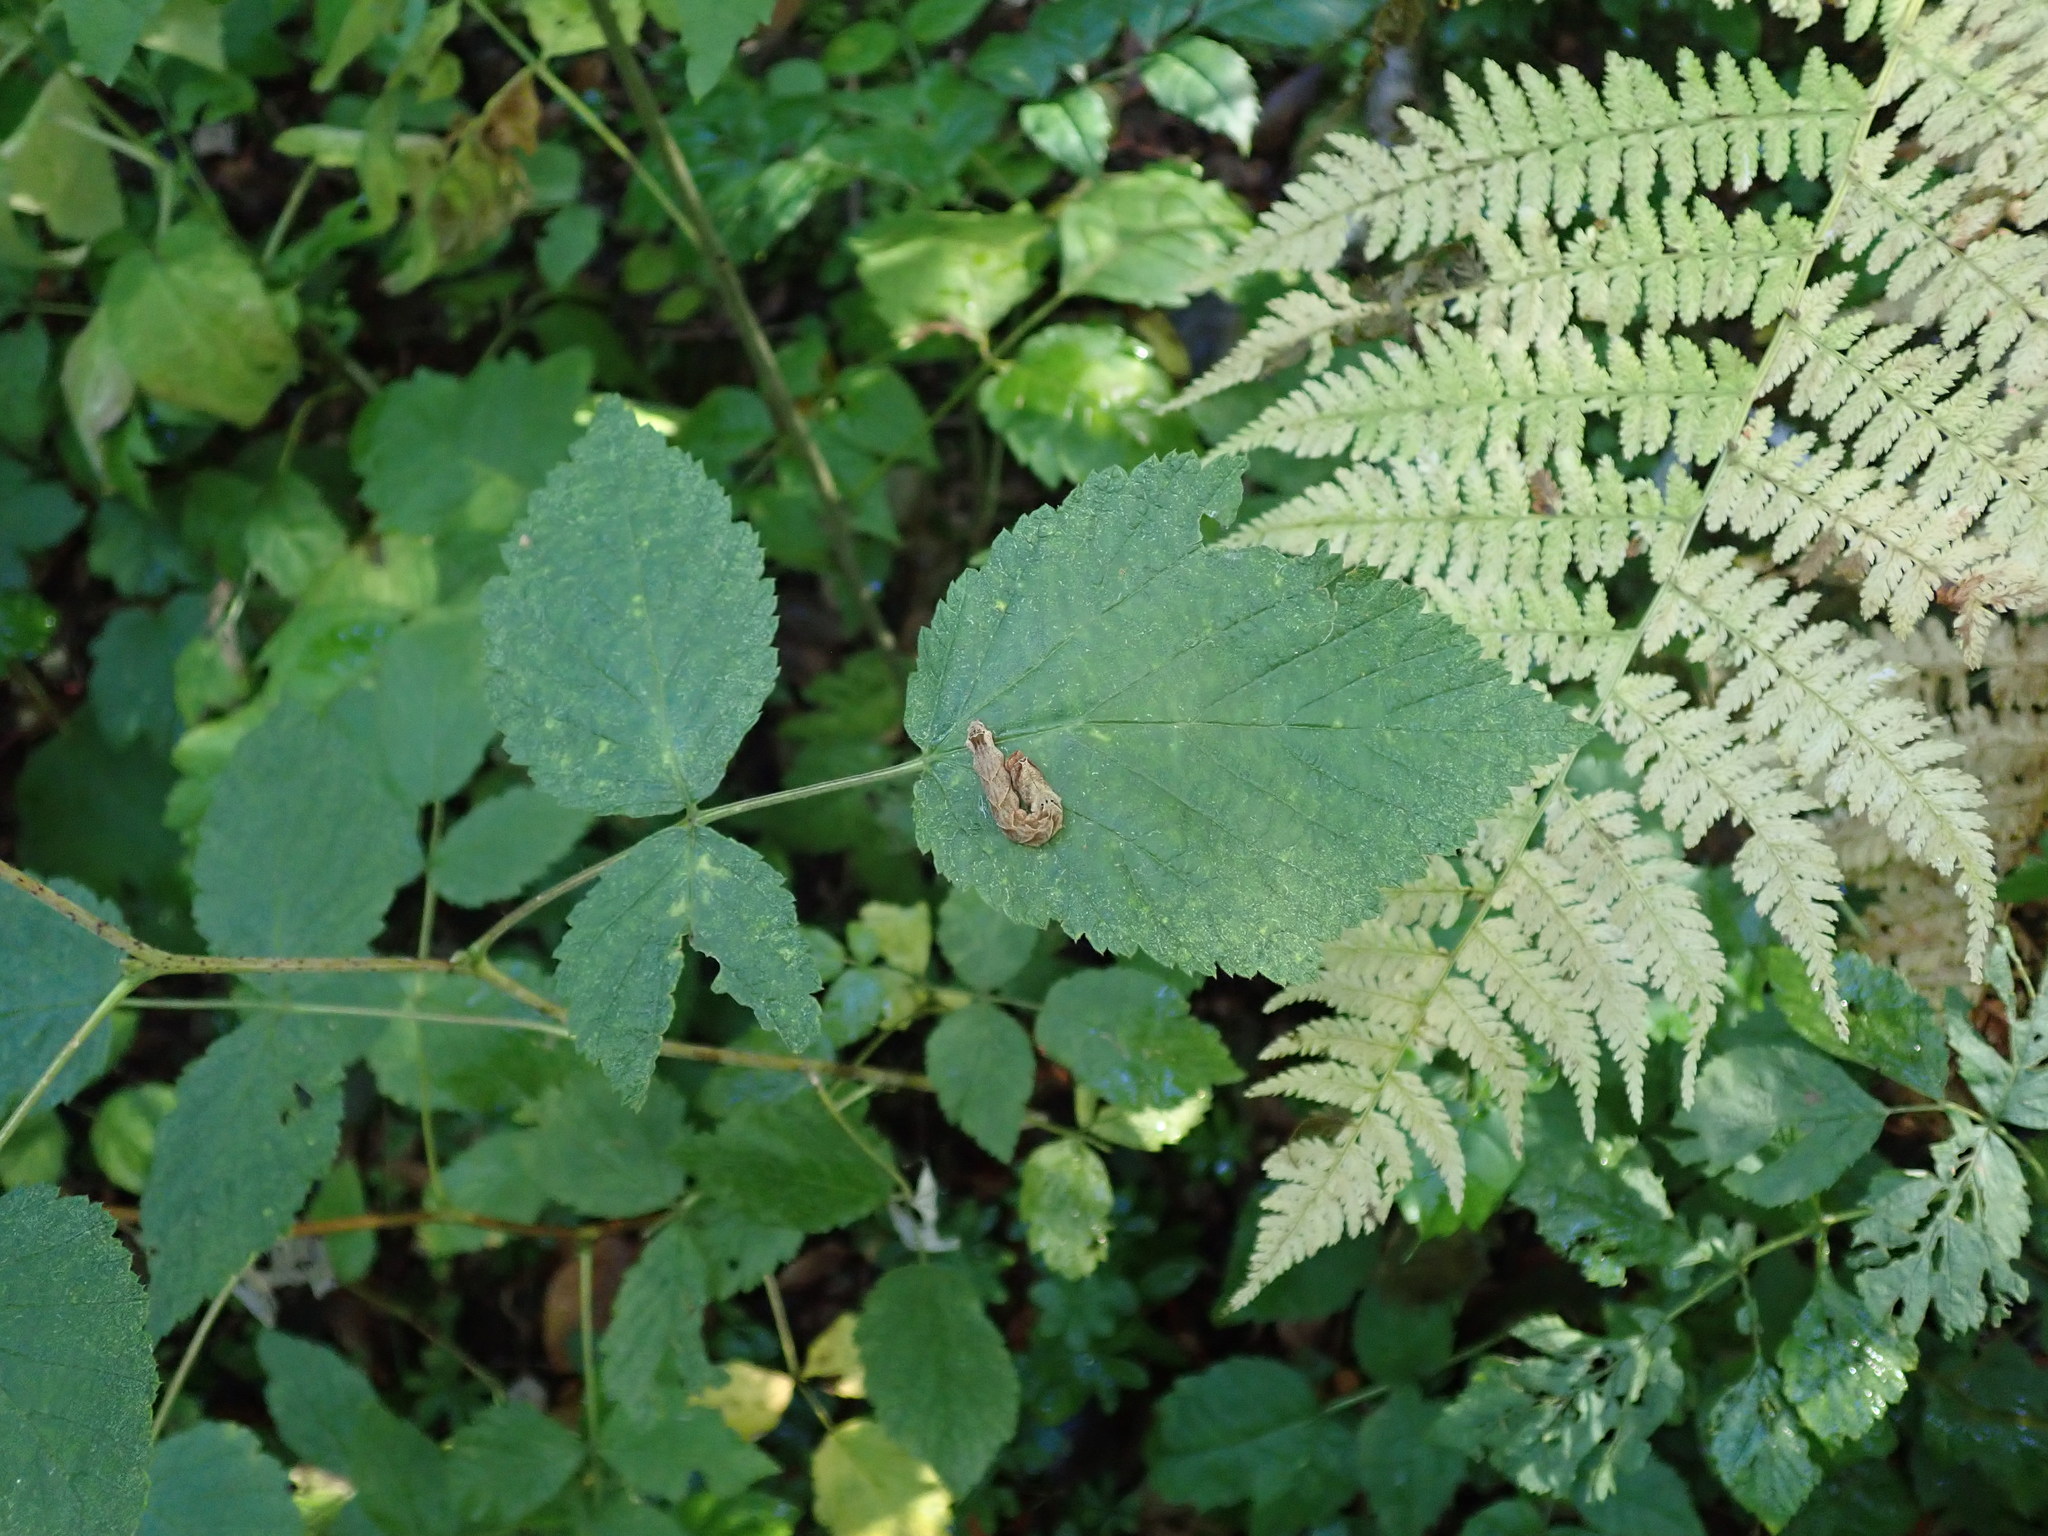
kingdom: Animalia
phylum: Arthropoda
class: Insecta
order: Lepidoptera
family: Drepanidae
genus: Thyatira
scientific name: Thyatira batis
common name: Peach blossom
